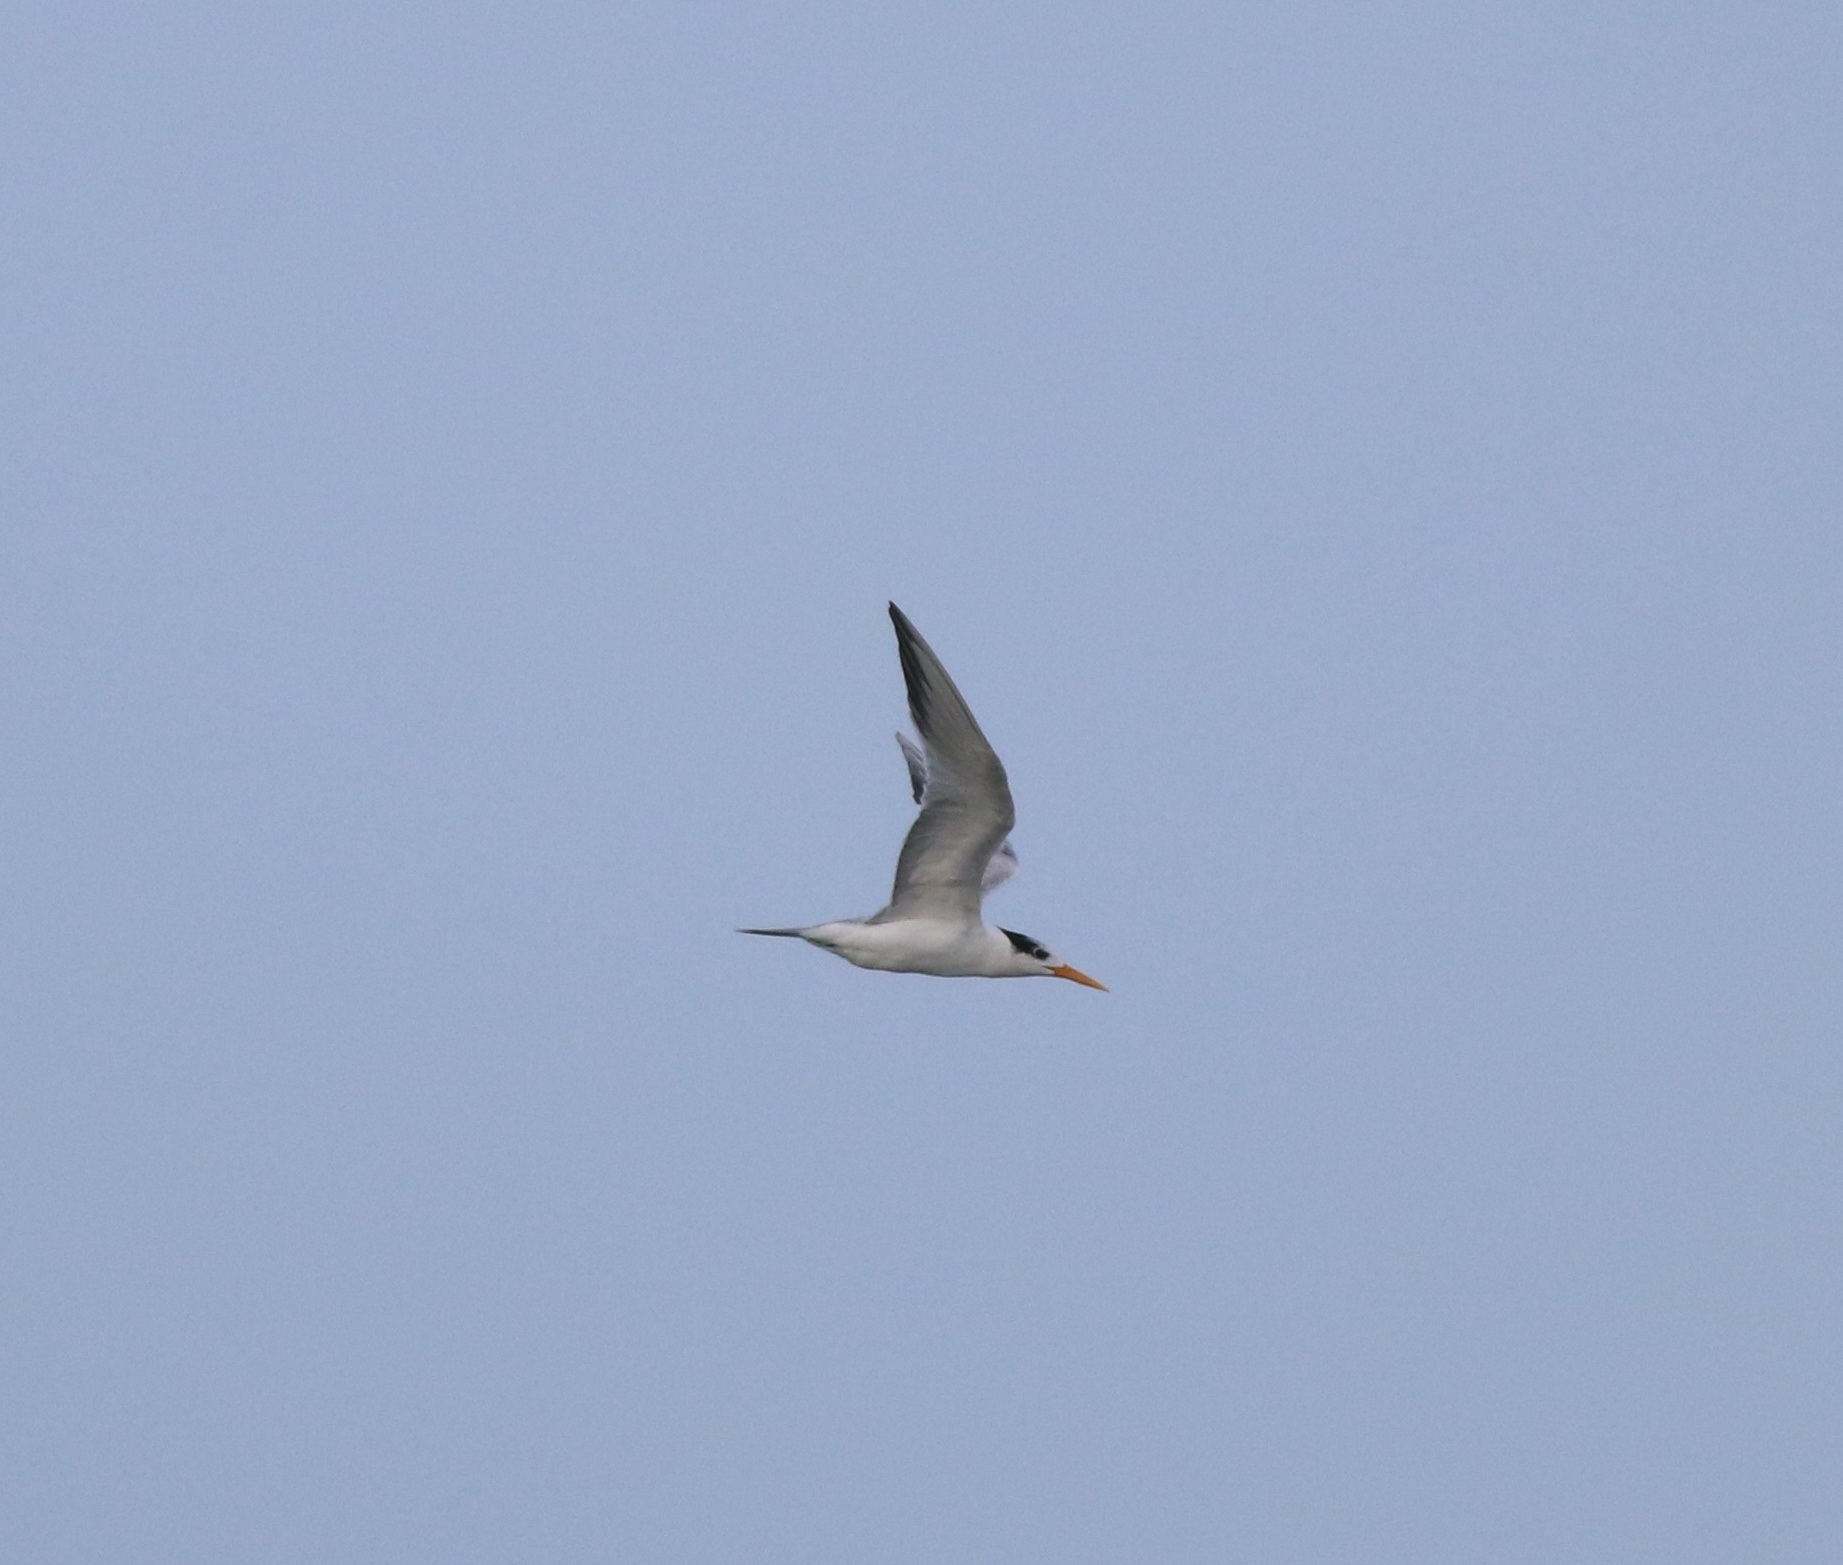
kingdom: Animalia
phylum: Chordata
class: Aves
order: Charadriiformes
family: Laridae
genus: Thalasseus
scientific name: Thalasseus bergii
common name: Greater crested tern
